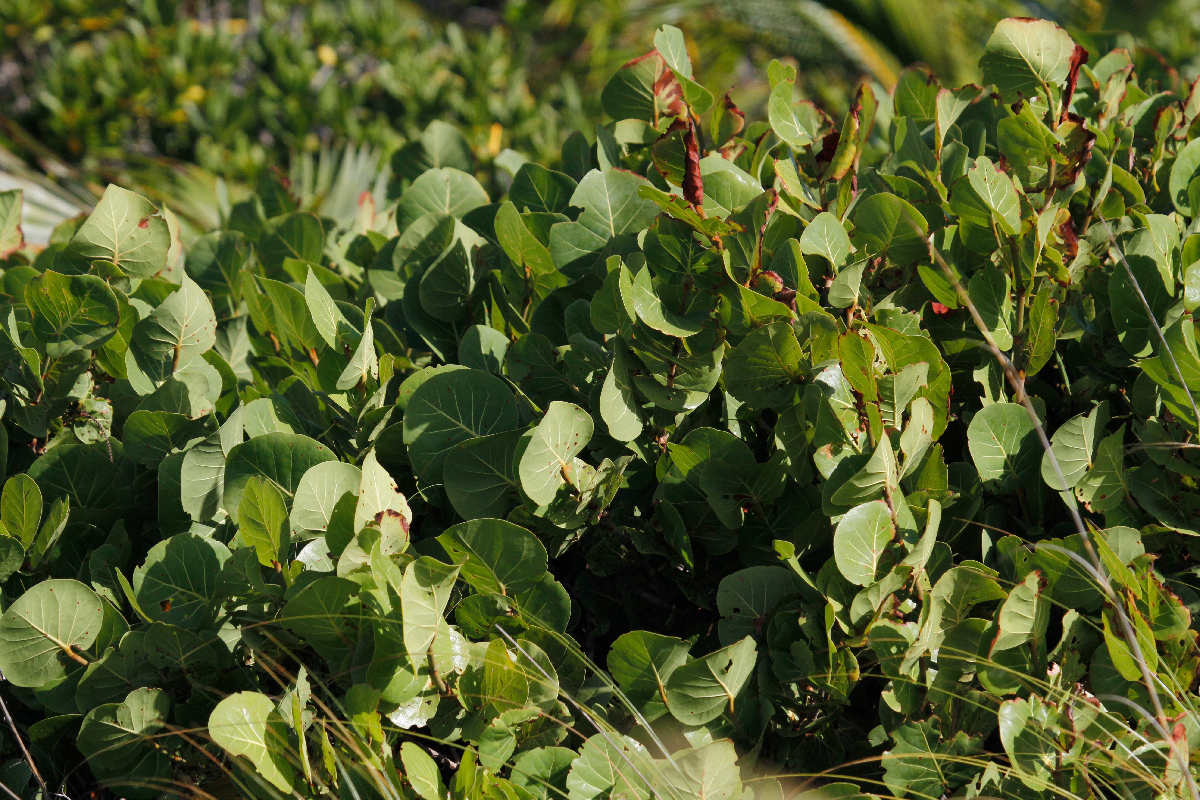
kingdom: Plantae
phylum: Tracheophyta
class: Magnoliopsida
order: Caryophyllales
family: Polygonaceae
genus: Coccoloba
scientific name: Coccoloba uvifera
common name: Seagrape
